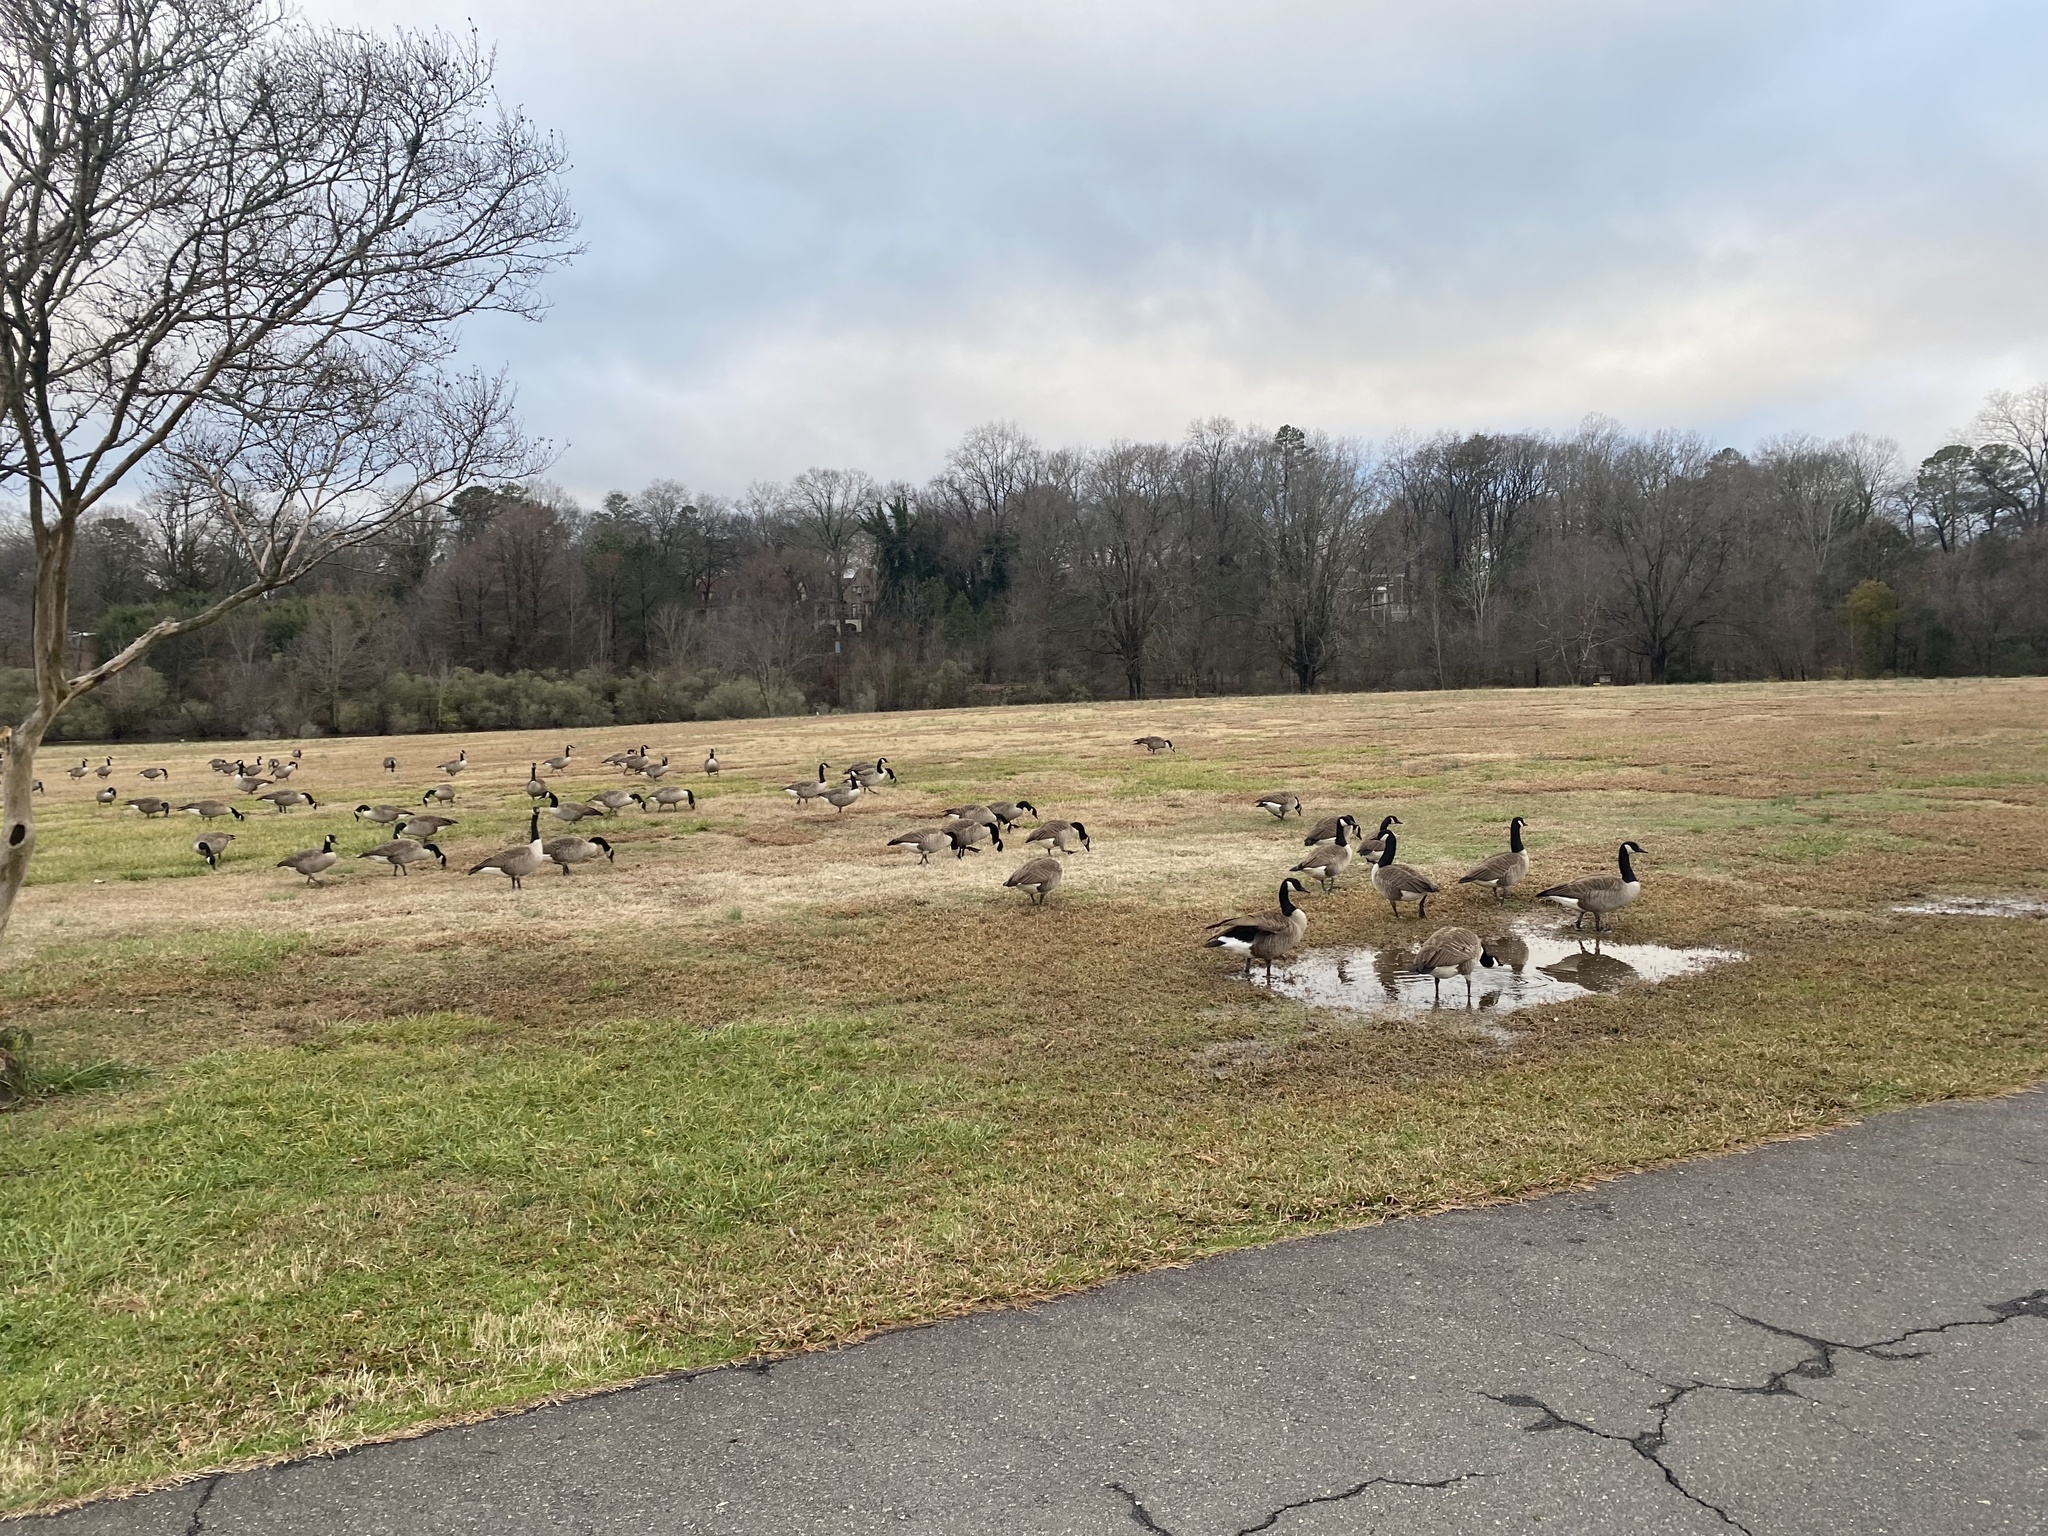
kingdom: Animalia
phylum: Chordata
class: Aves
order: Anseriformes
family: Anatidae
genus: Branta
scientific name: Branta canadensis
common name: Canada goose
